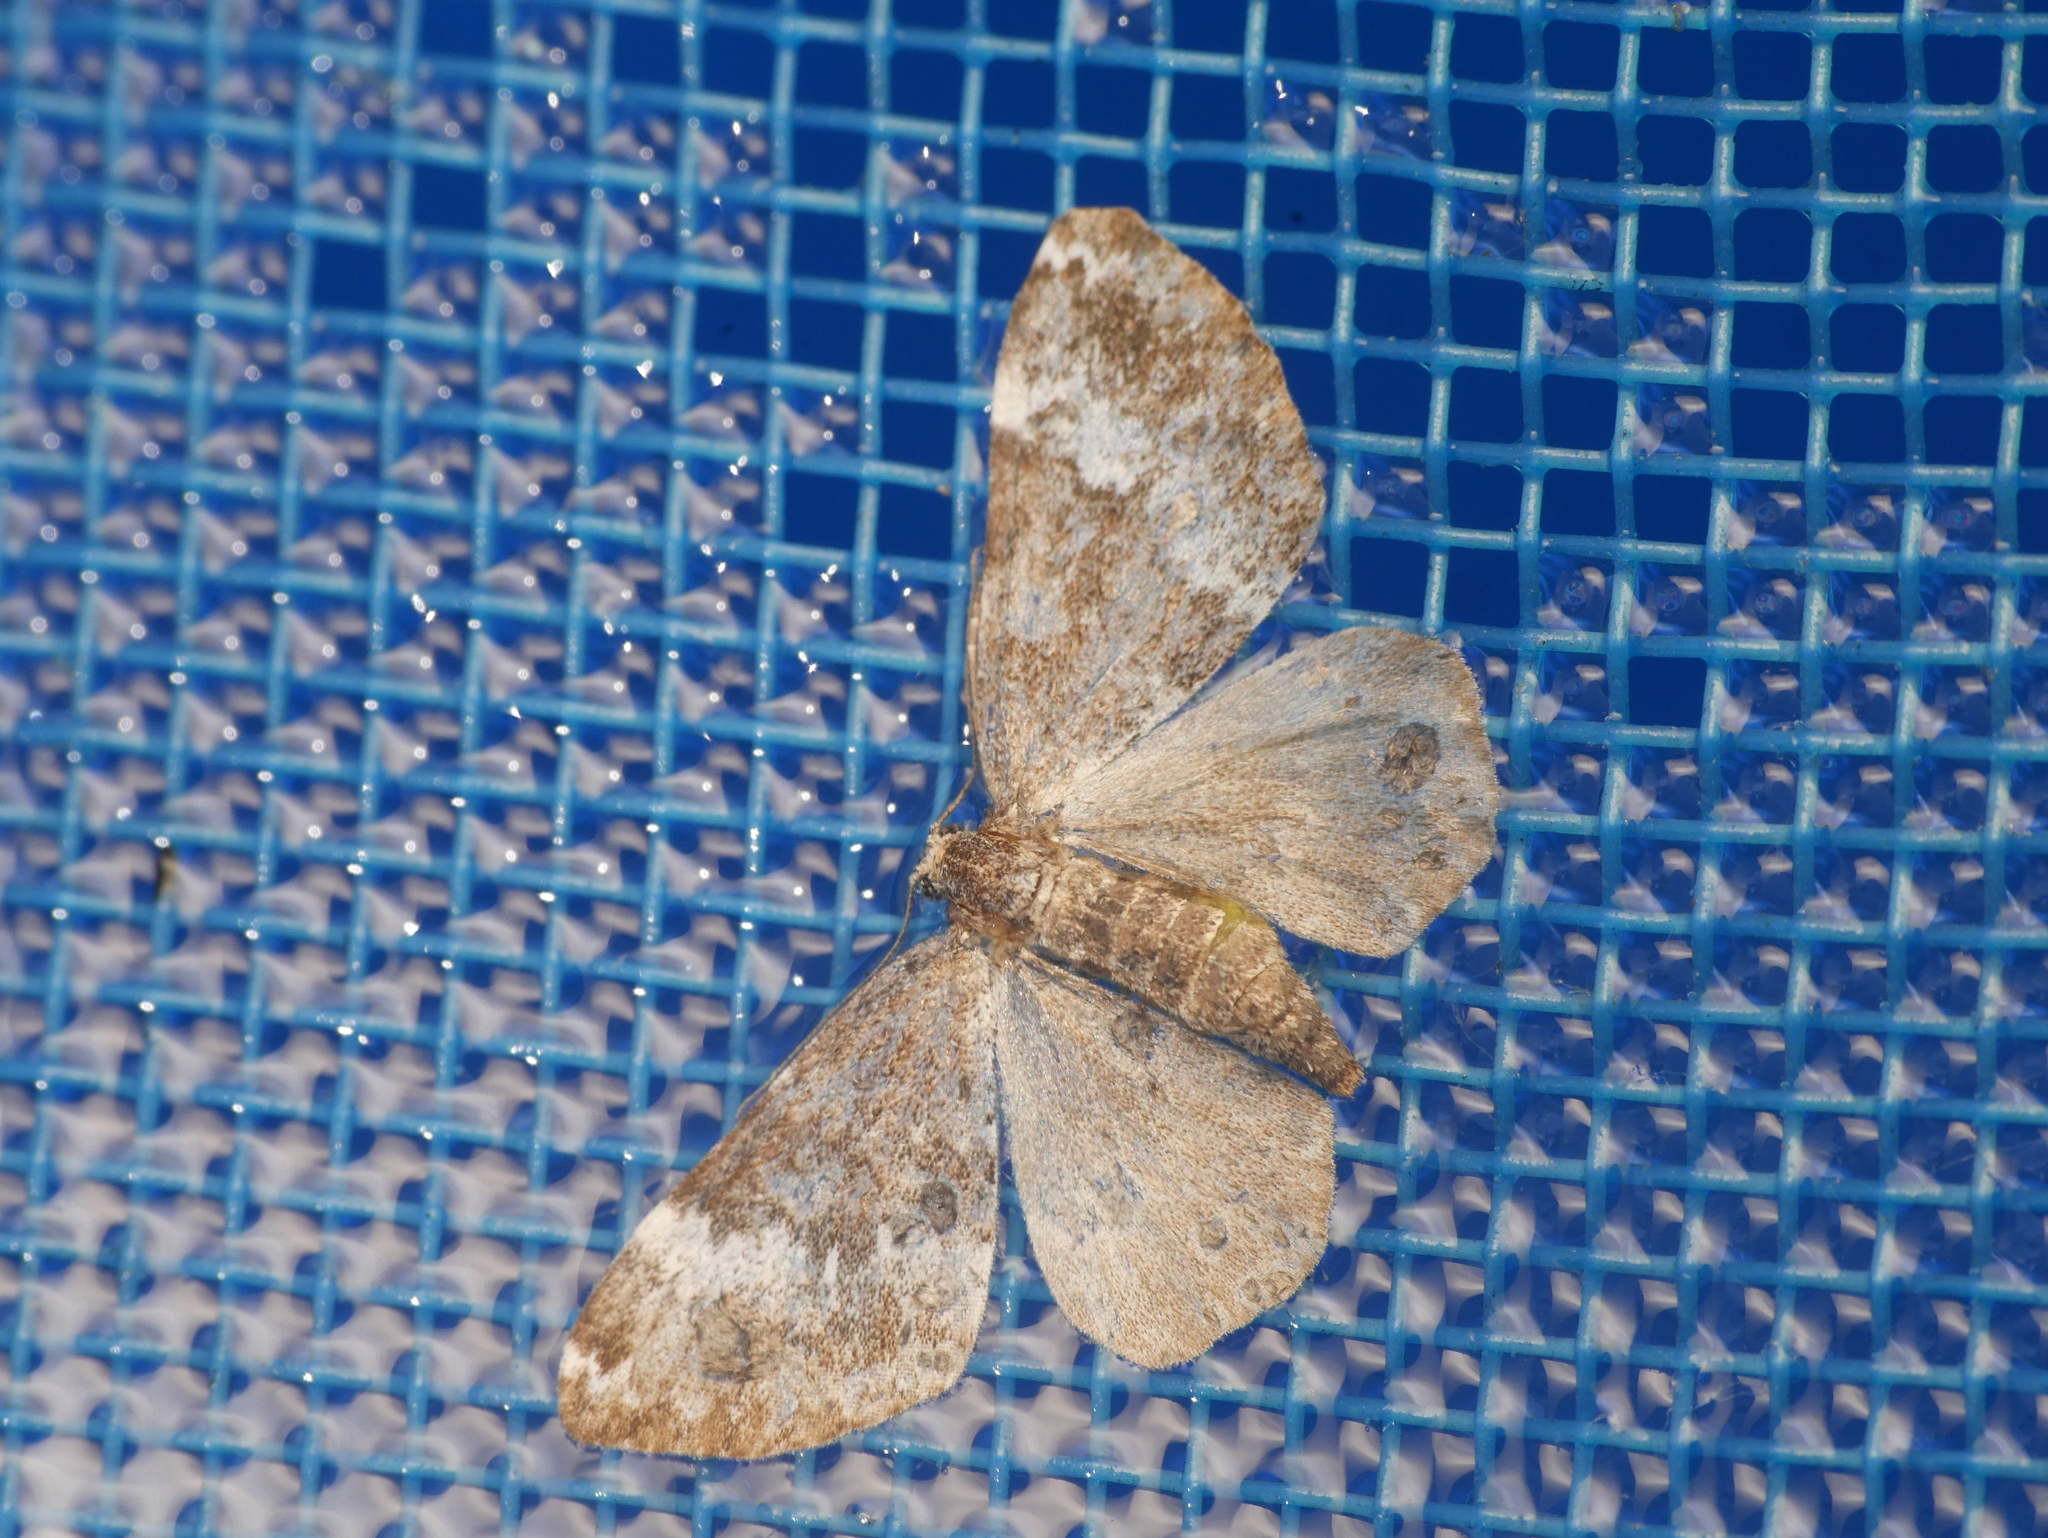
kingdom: Animalia
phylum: Arthropoda
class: Insecta
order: Lepidoptera
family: Geometridae
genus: Perizoma
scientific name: Perizoma alchemillata
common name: Small rivulet
